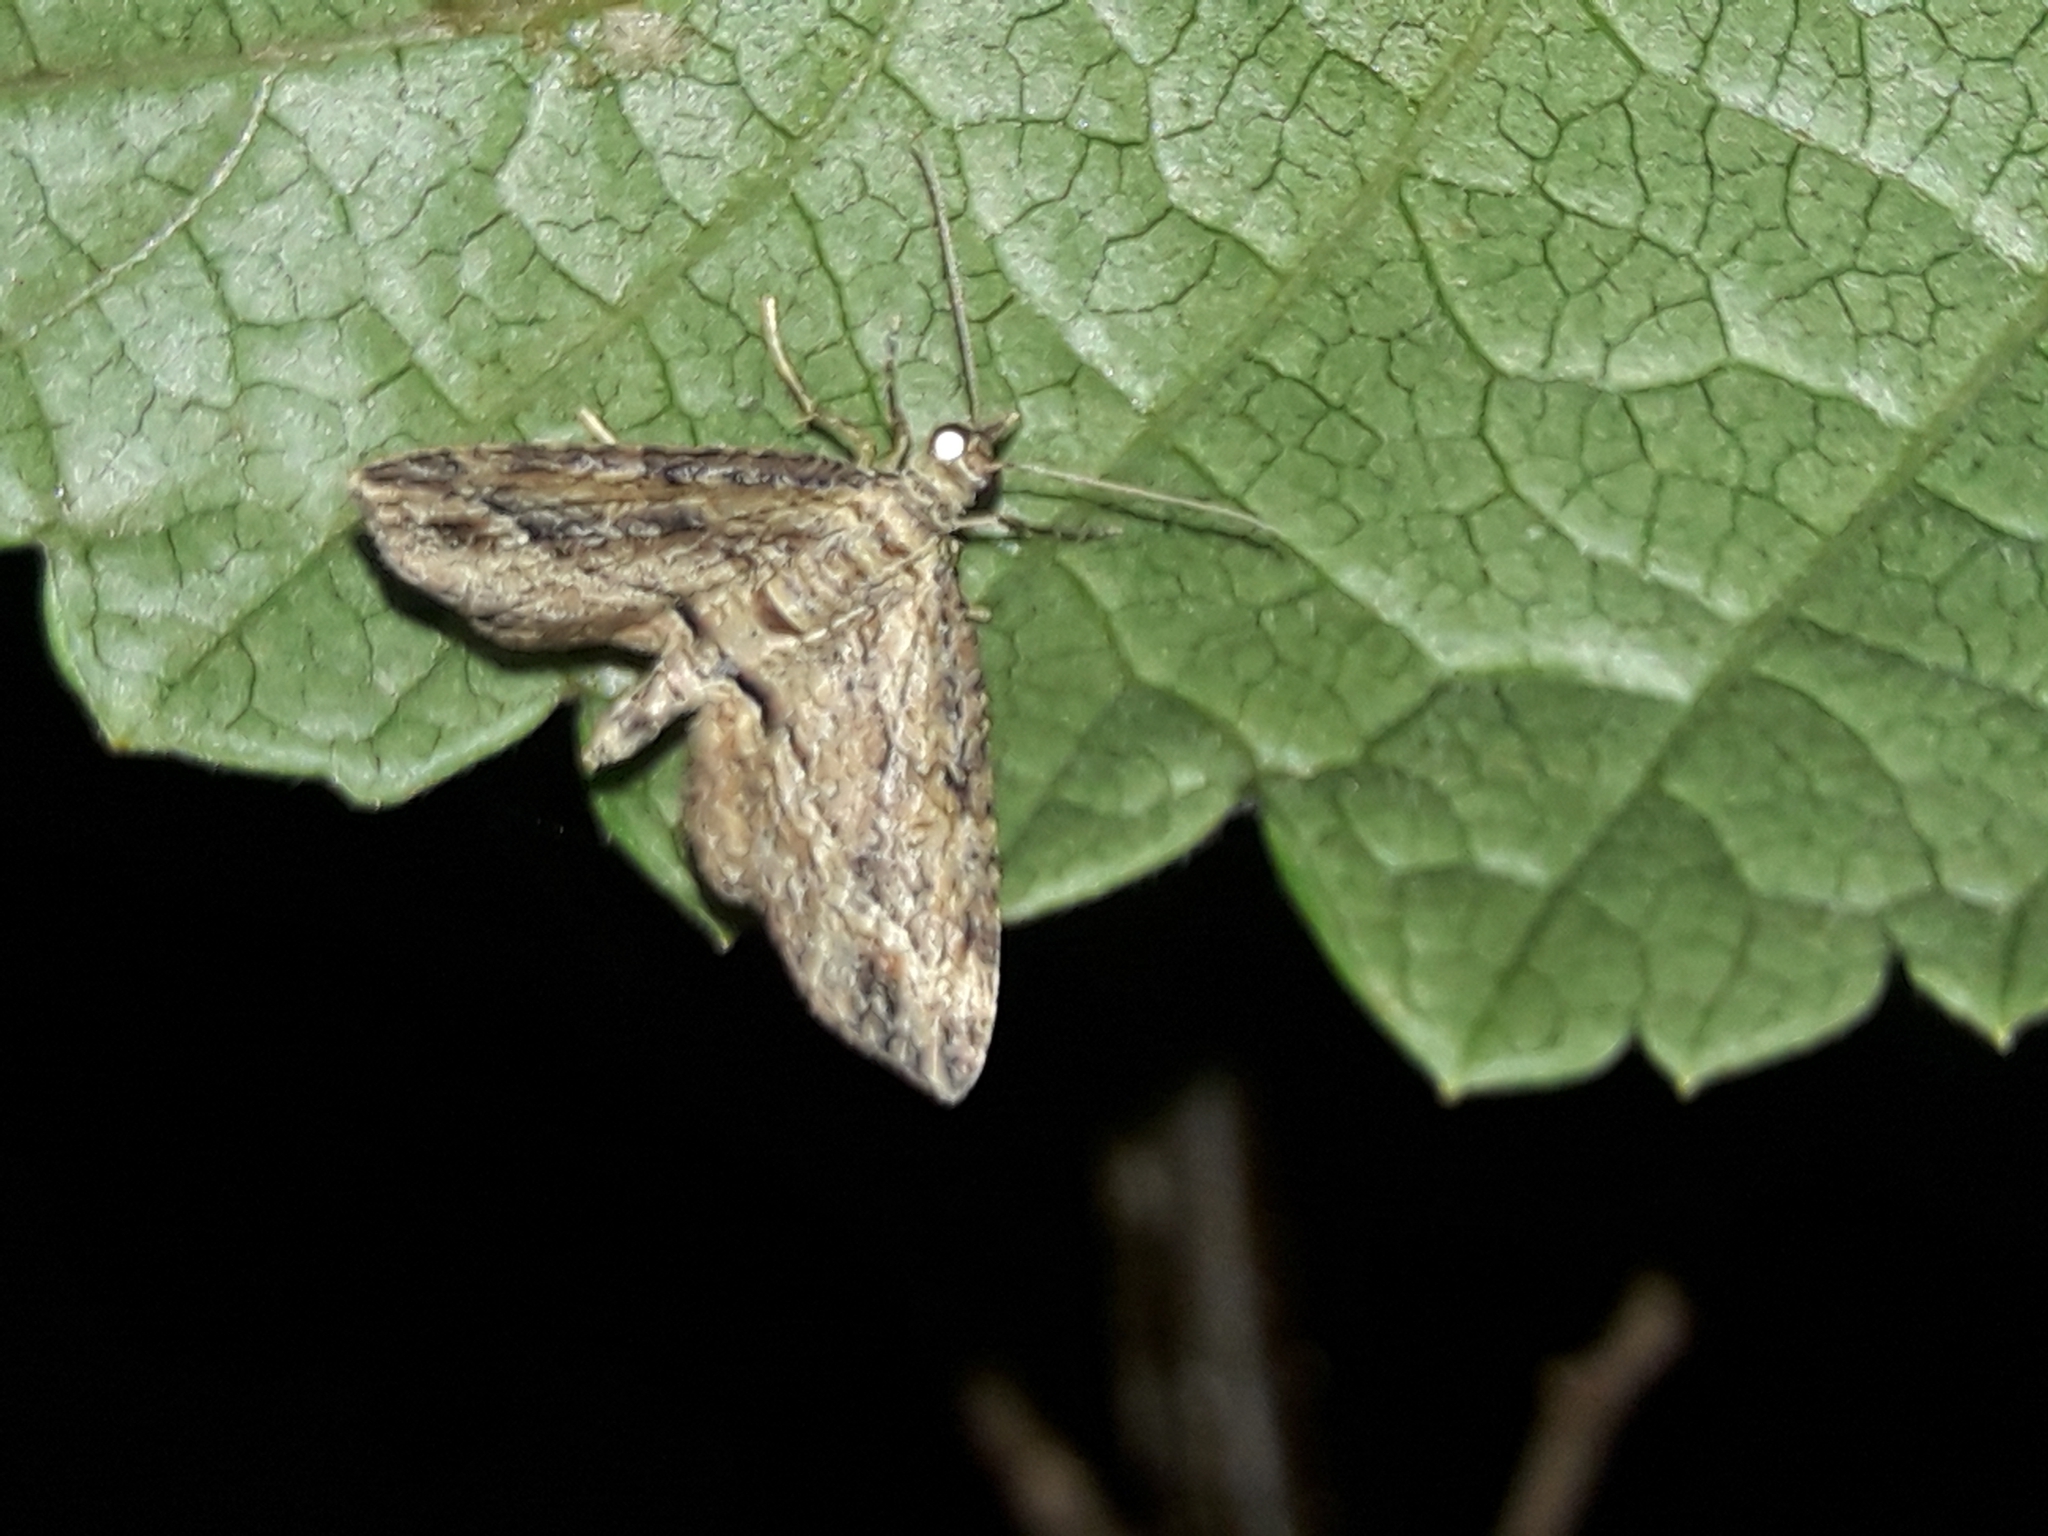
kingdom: Animalia
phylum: Arthropoda
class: Insecta
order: Lepidoptera
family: Geometridae
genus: Chloroclystis
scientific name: Chloroclystis filata
